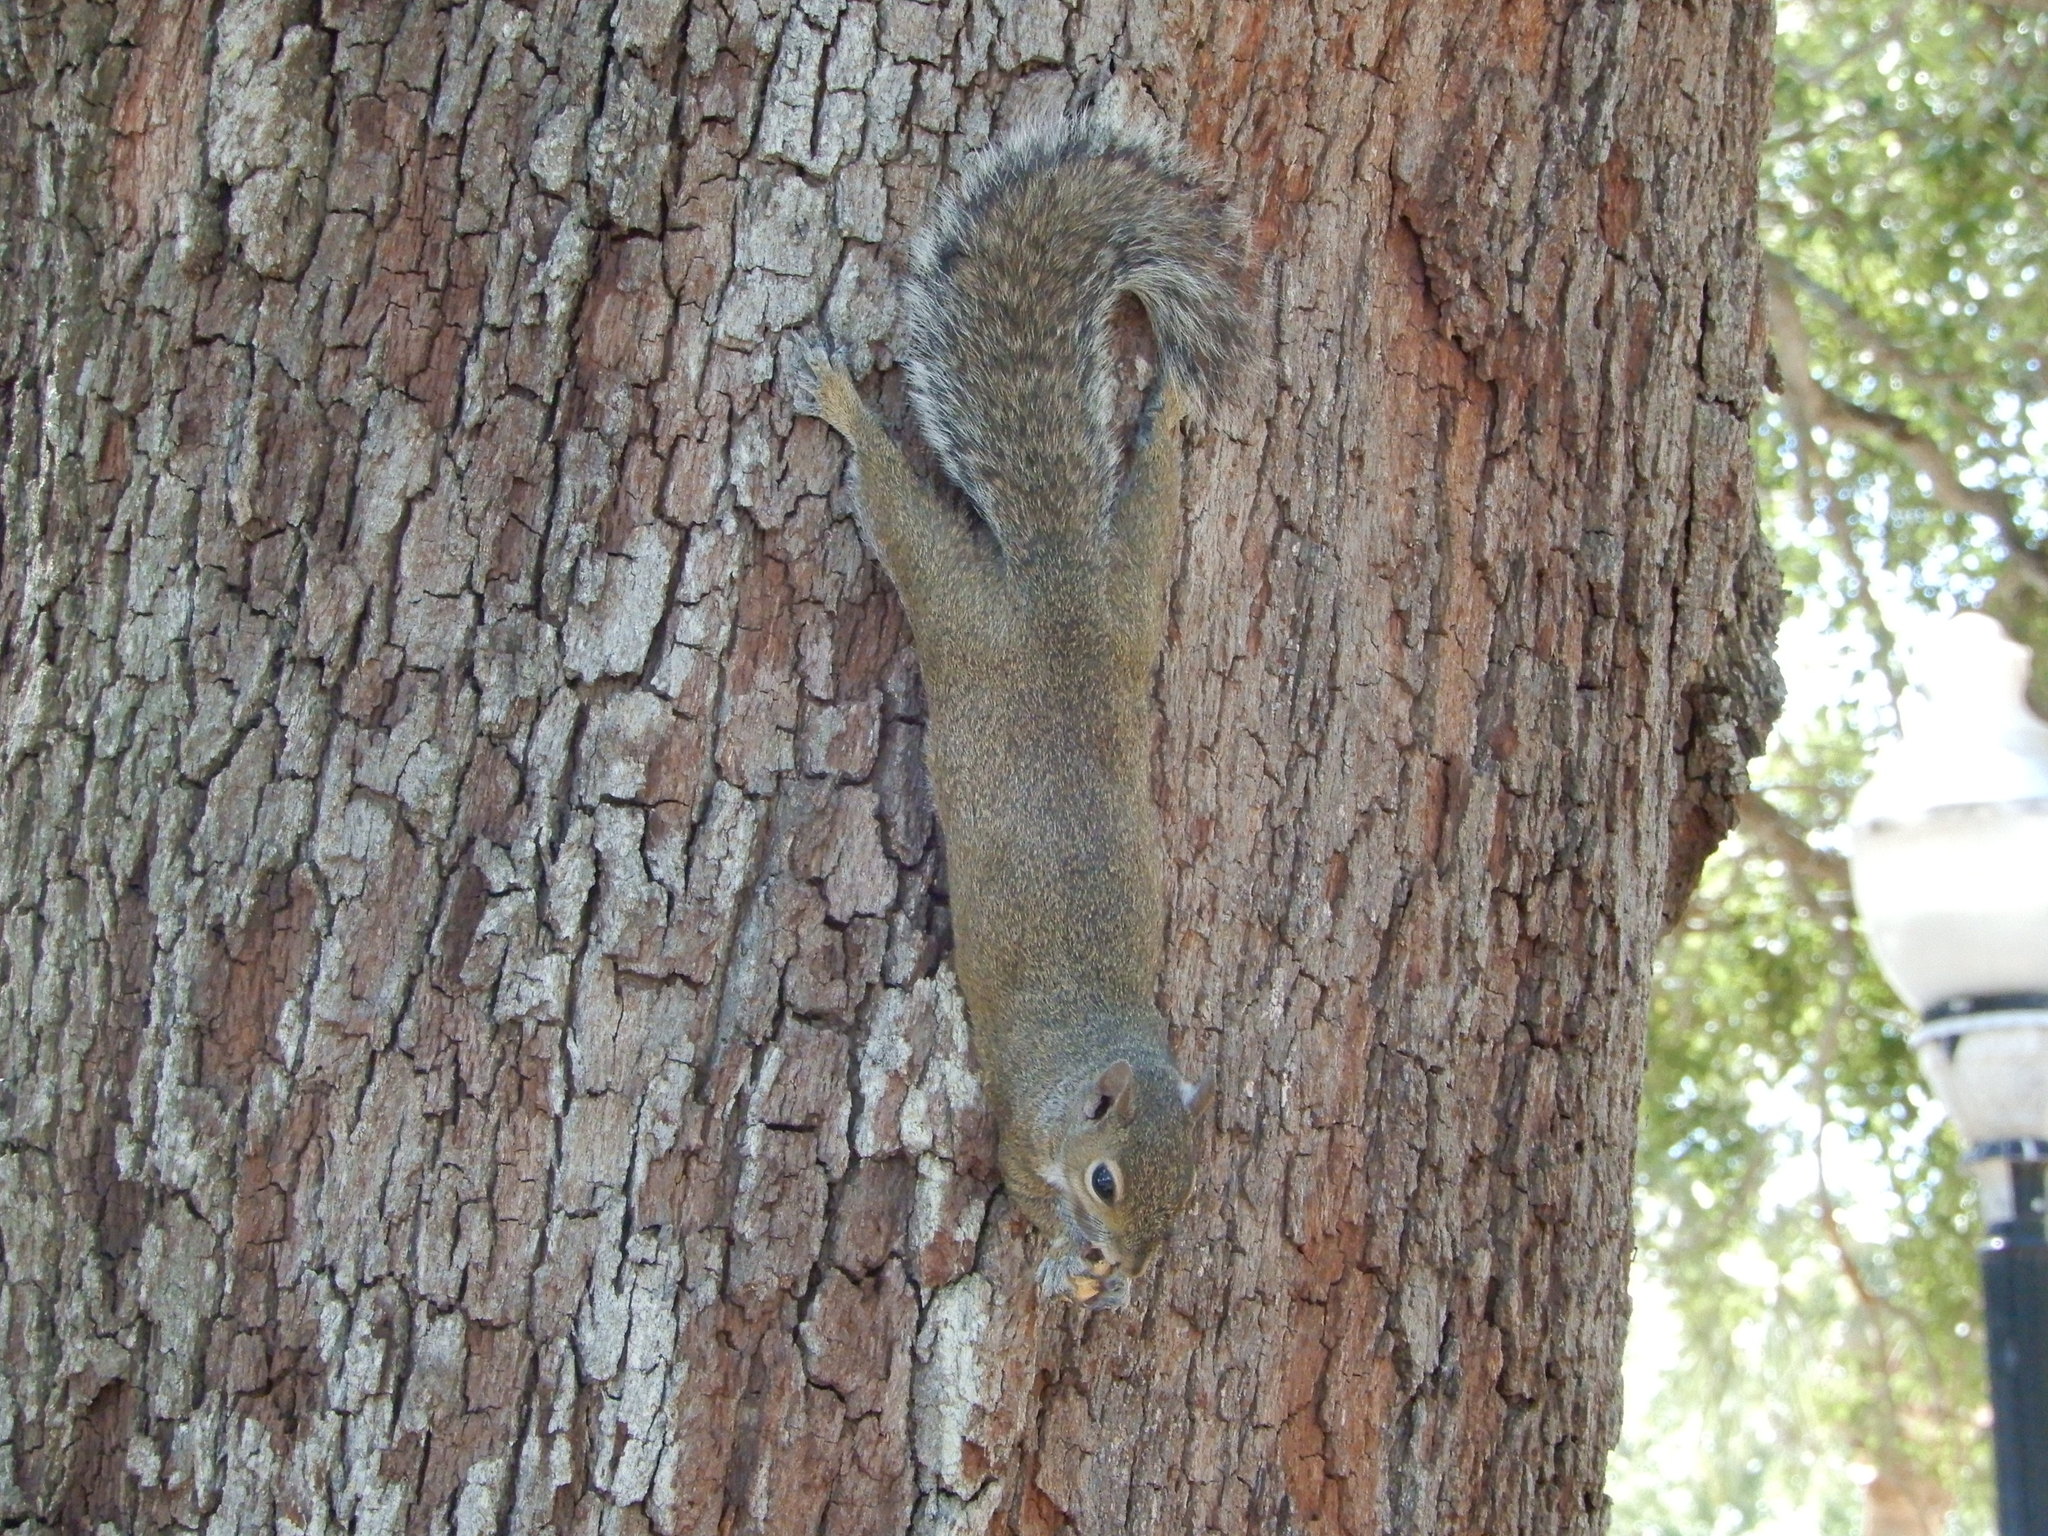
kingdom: Animalia
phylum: Chordata
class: Mammalia
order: Rodentia
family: Sciuridae
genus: Sciurus
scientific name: Sciurus carolinensis
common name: Eastern gray squirrel
